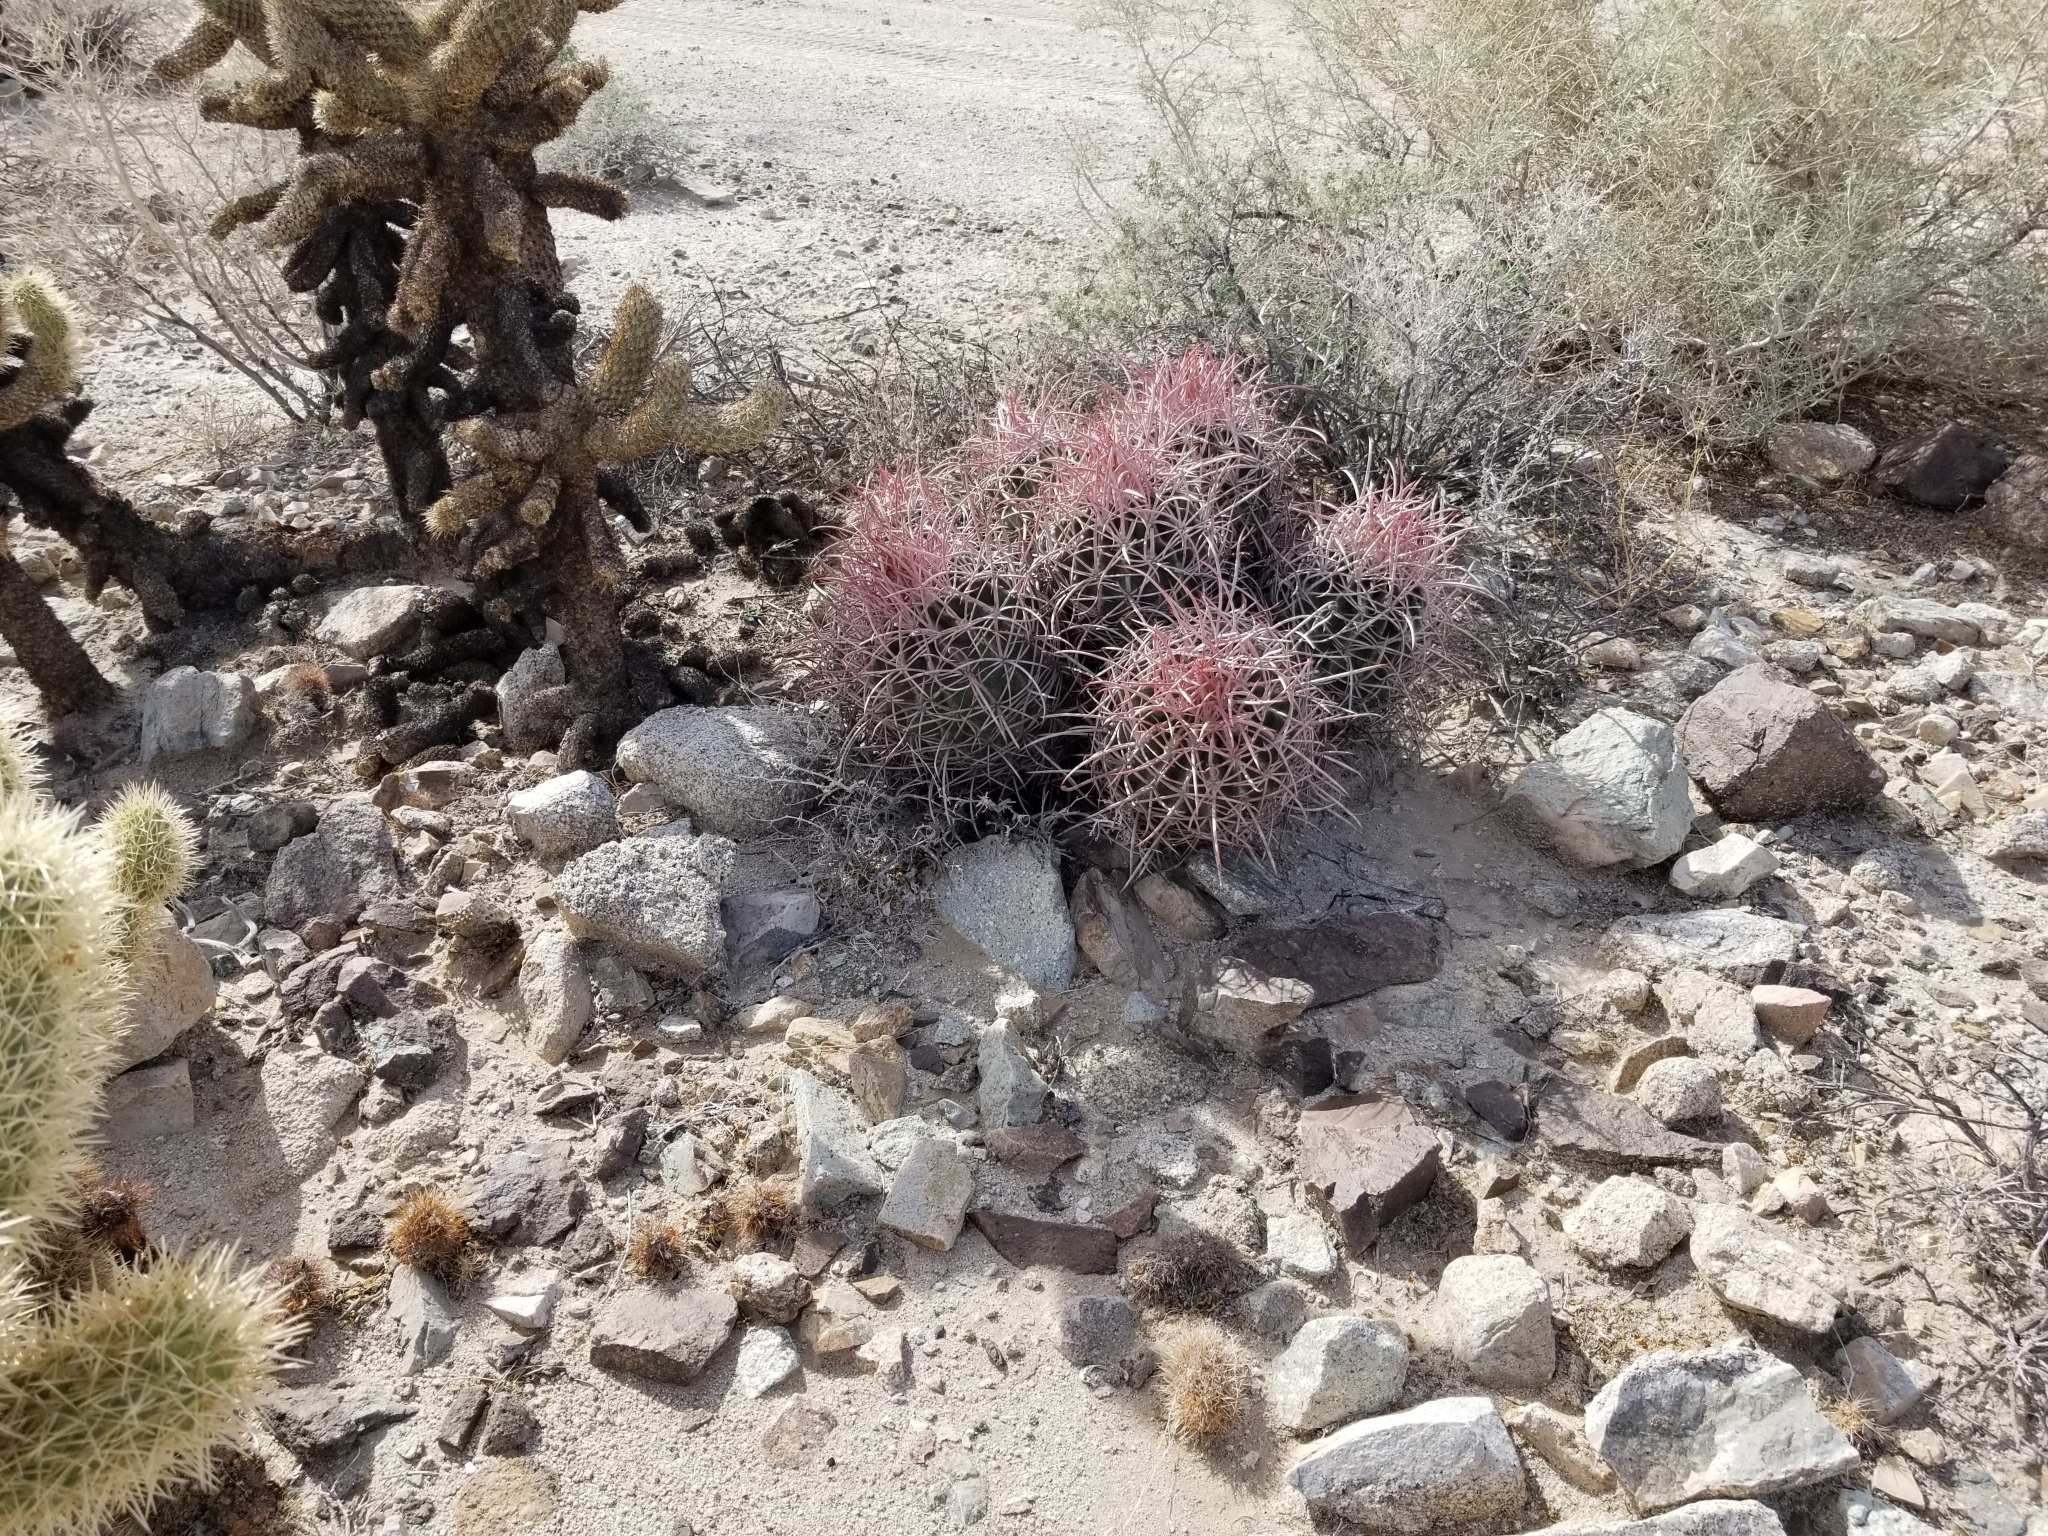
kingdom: Plantae
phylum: Tracheophyta
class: Magnoliopsida
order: Caryophyllales
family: Cactaceae
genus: Echinocactus
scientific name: Echinocactus polycephalus
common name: Cottontop cactus
